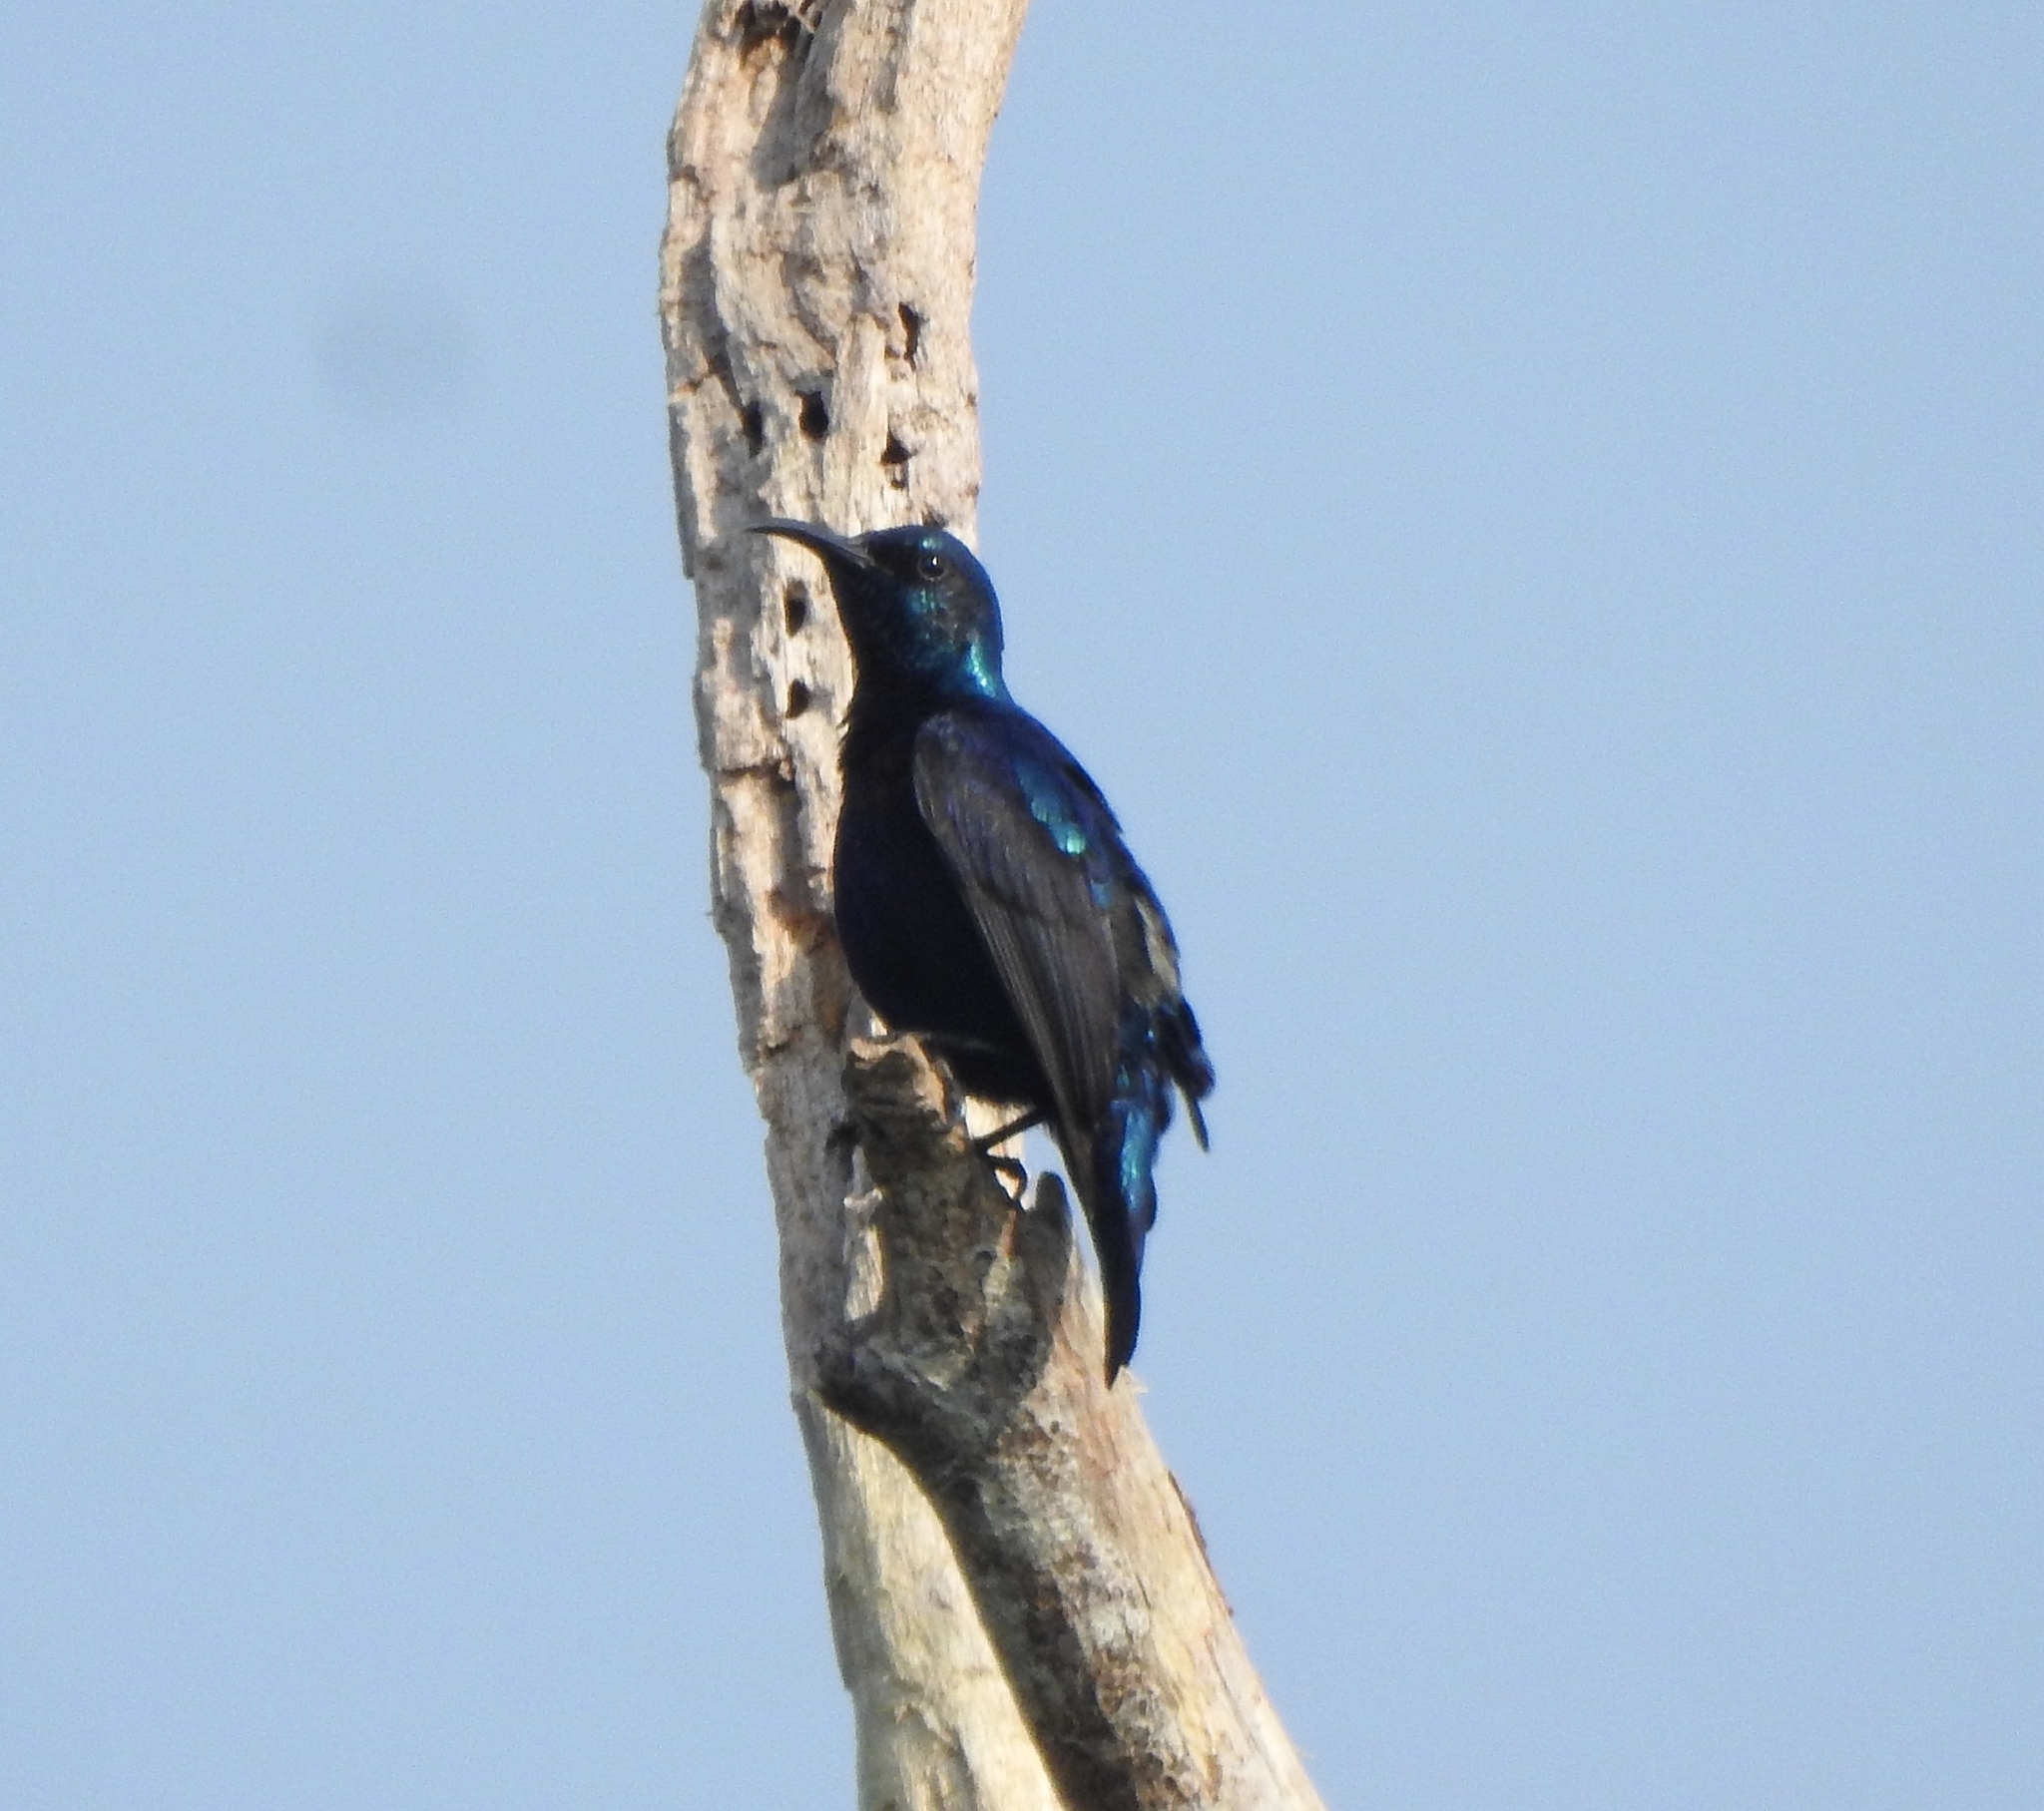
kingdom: Animalia
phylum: Chordata
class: Aves
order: Passeriformes
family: Nectariniidae
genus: Cinnyris
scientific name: Cinnyris asiaticus
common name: Purple sunbird
